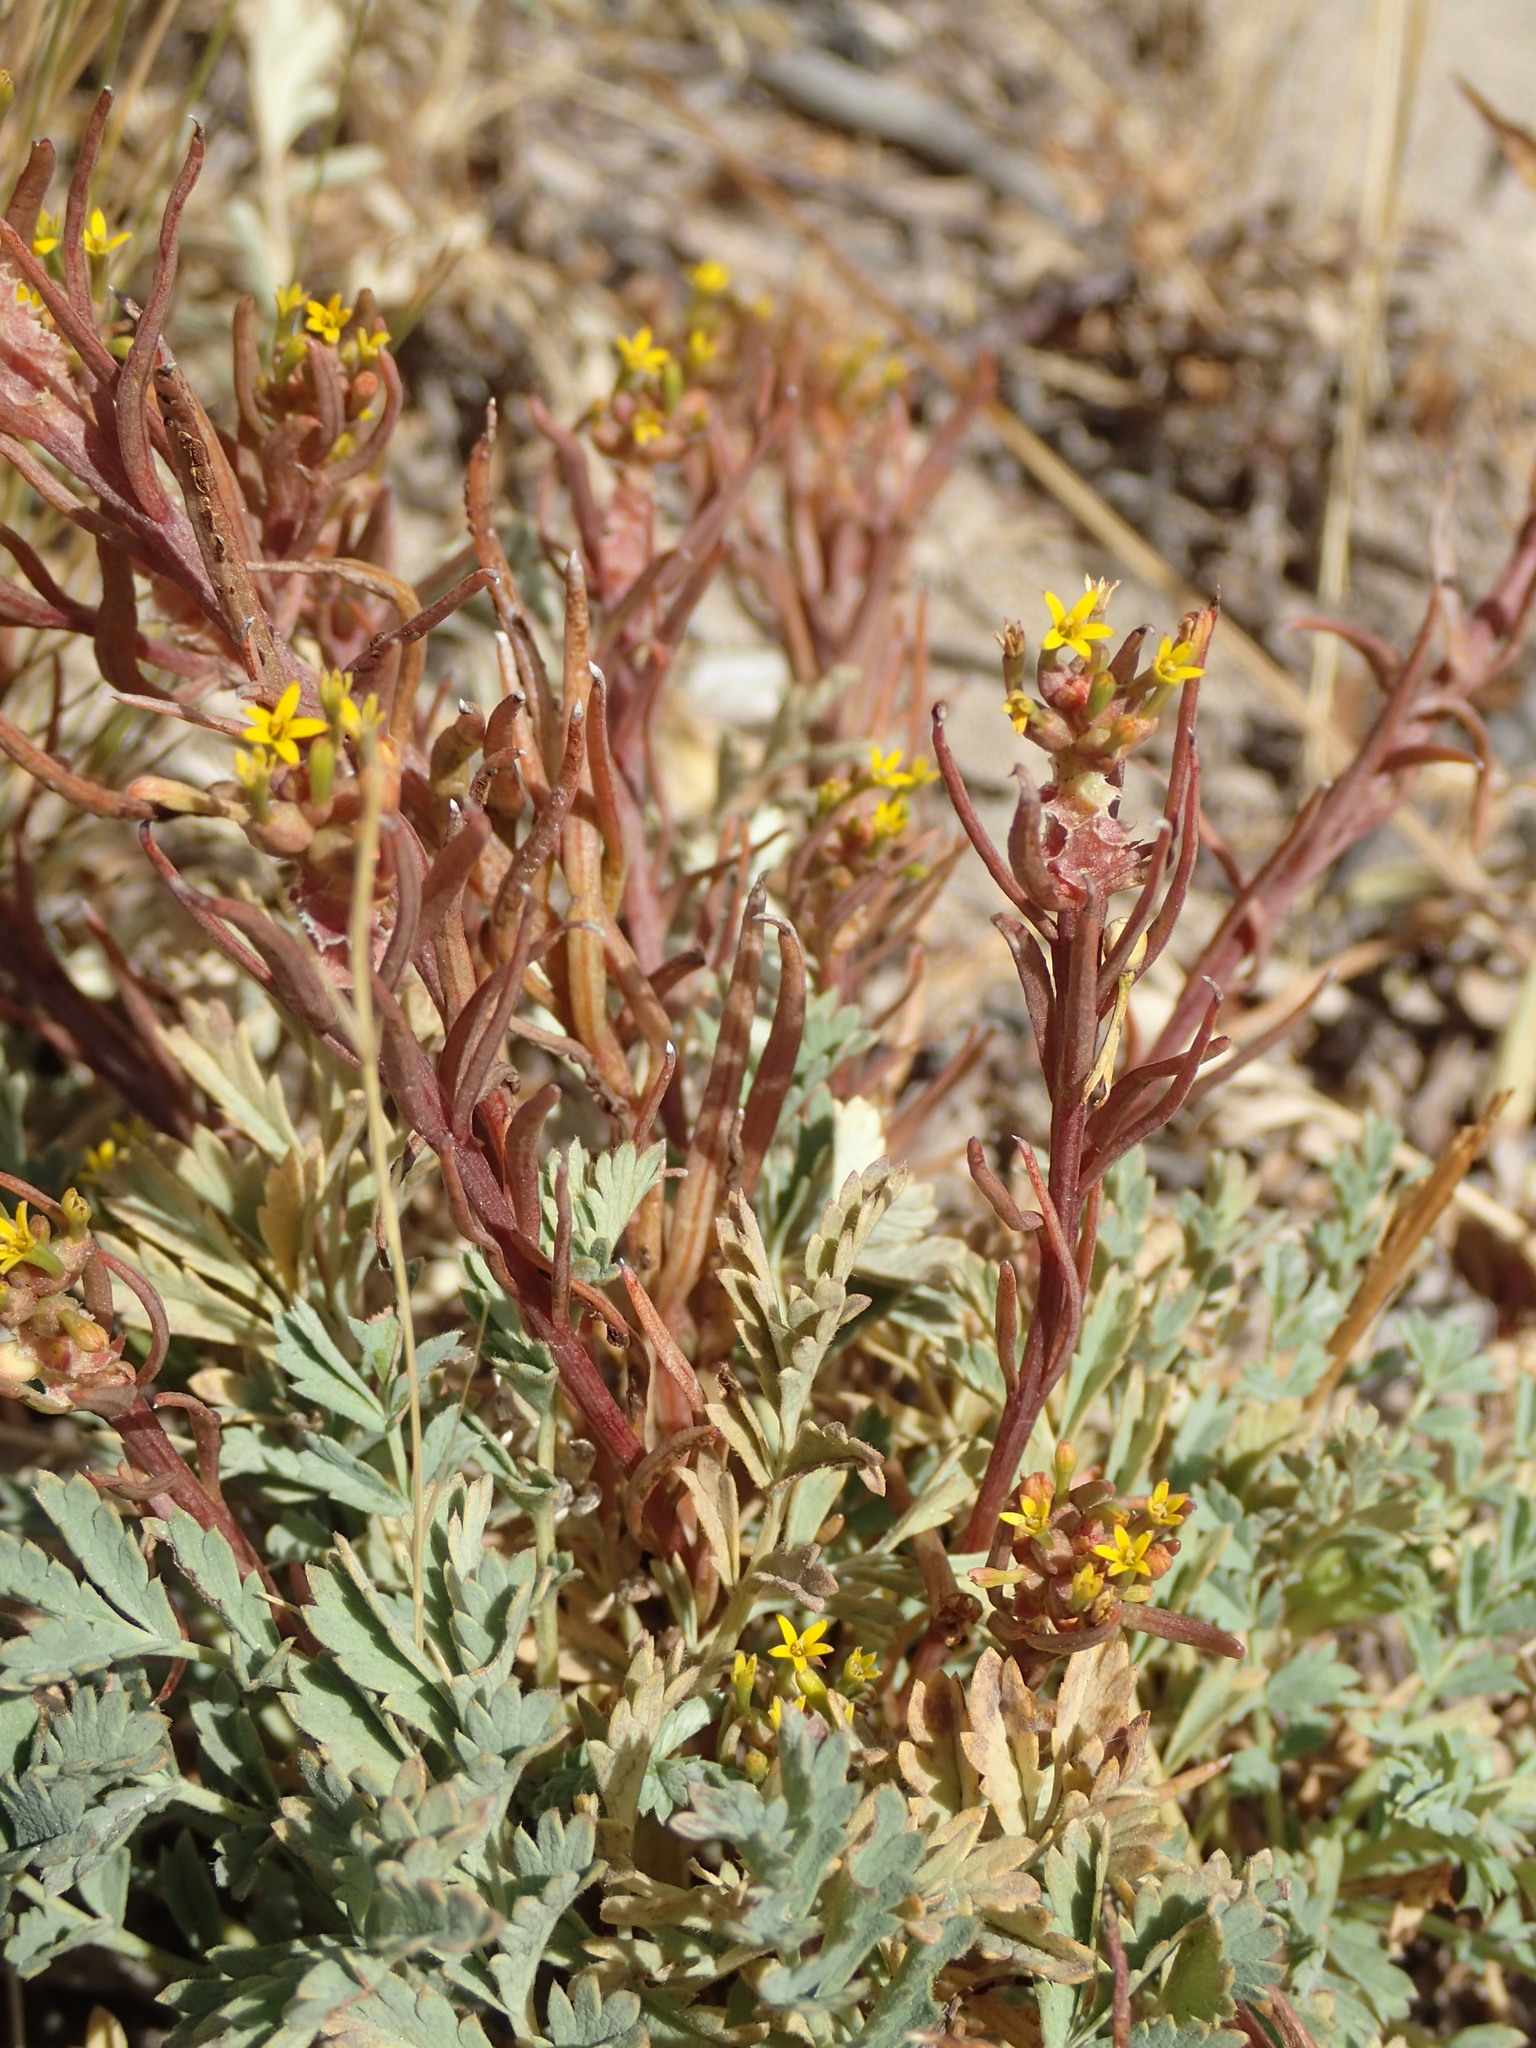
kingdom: Plantae
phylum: Tracheophyta
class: Magnoliopsida
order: Santalales
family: Schoepfiaceae
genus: Quinchamalium
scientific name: Quinchamalium chilense
